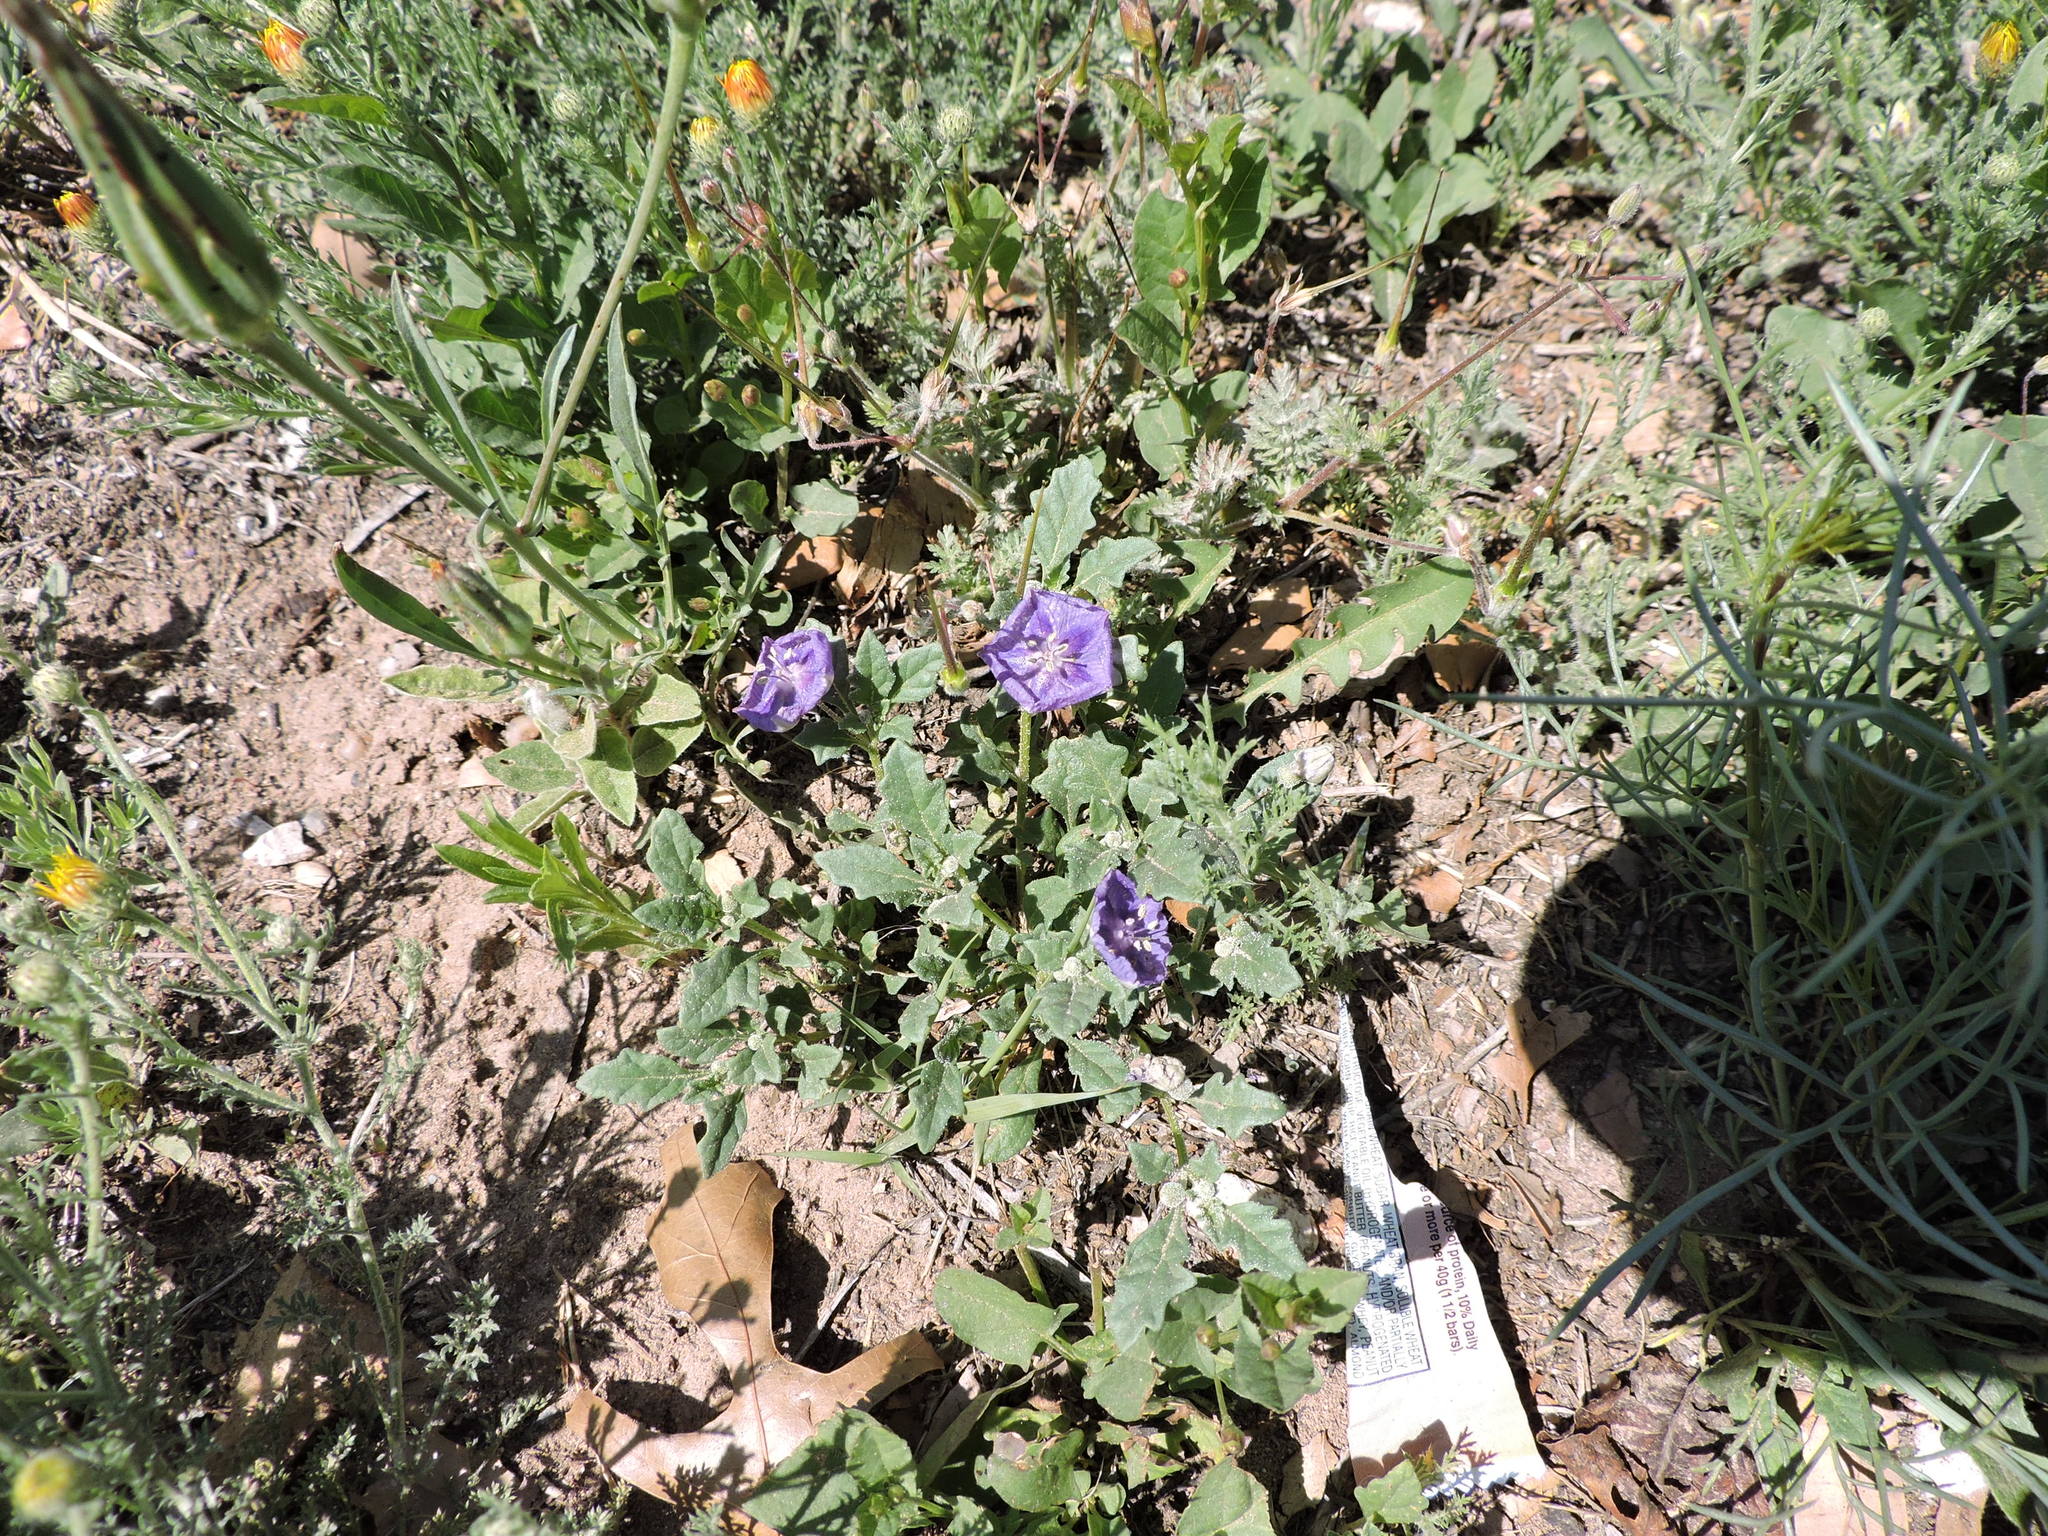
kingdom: Plantae
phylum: Tracheophyta
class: Magnoliopsida
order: Solanales
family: Solanaceae
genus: Quincula
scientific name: Quincula lobata
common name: Purple-ground-cherry
